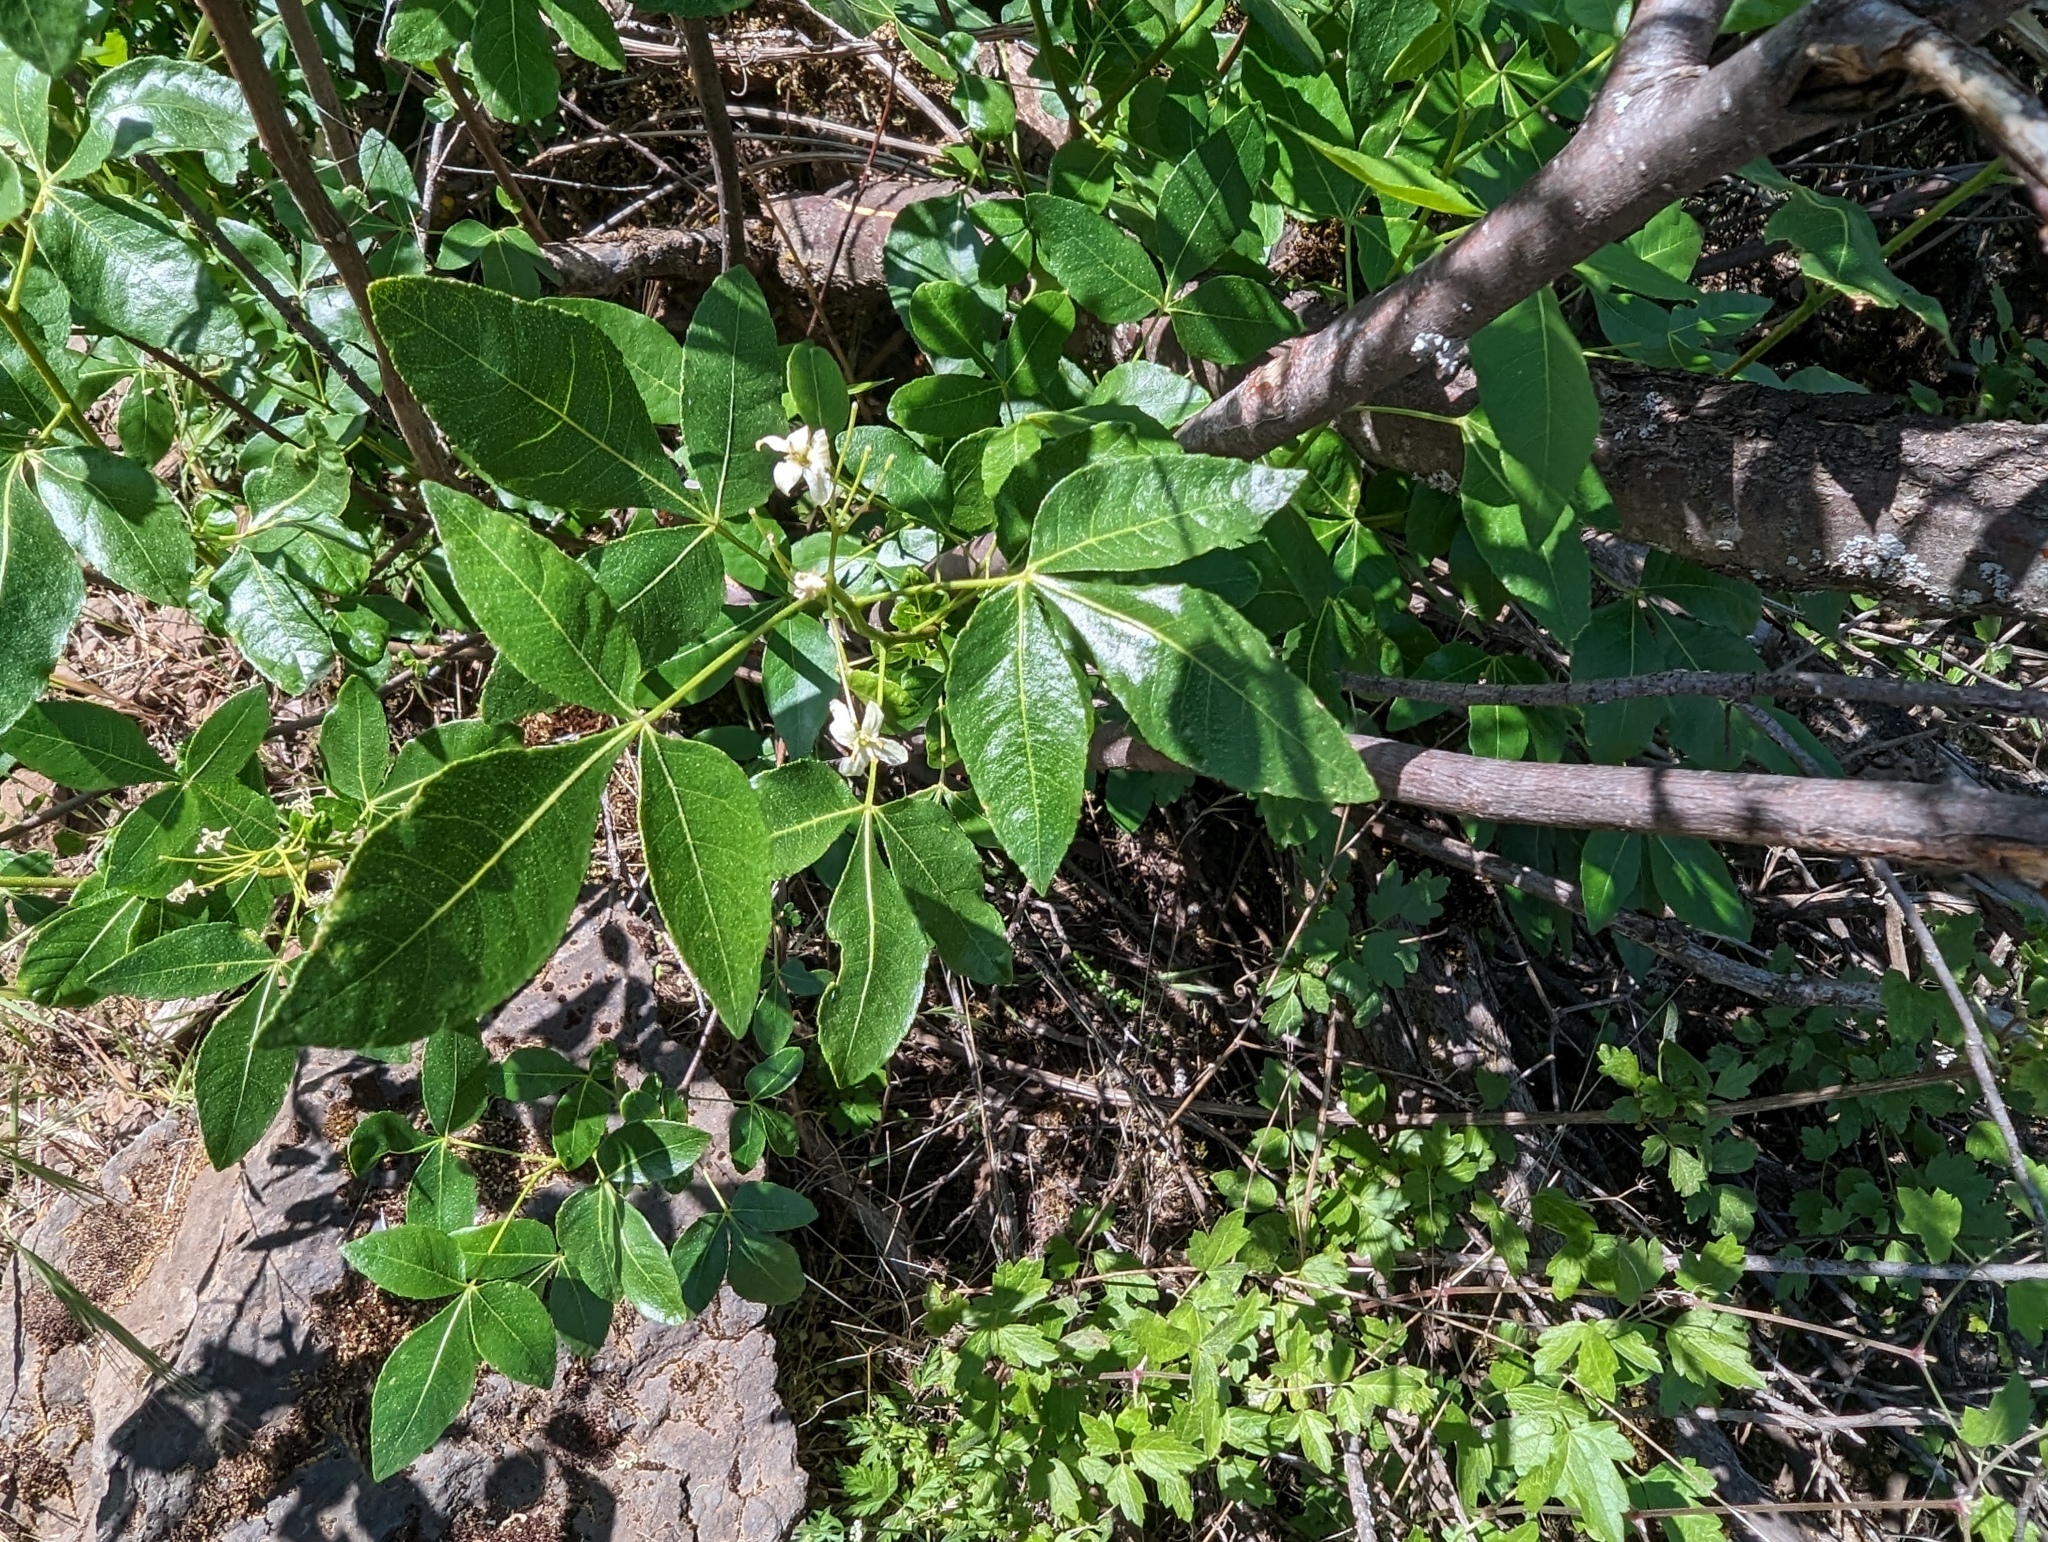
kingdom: Plantae
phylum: Tracheophyta
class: Magnoliopsida
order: Sapindales
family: Rutaceae
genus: Ptelea
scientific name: Ptelea crenulata
